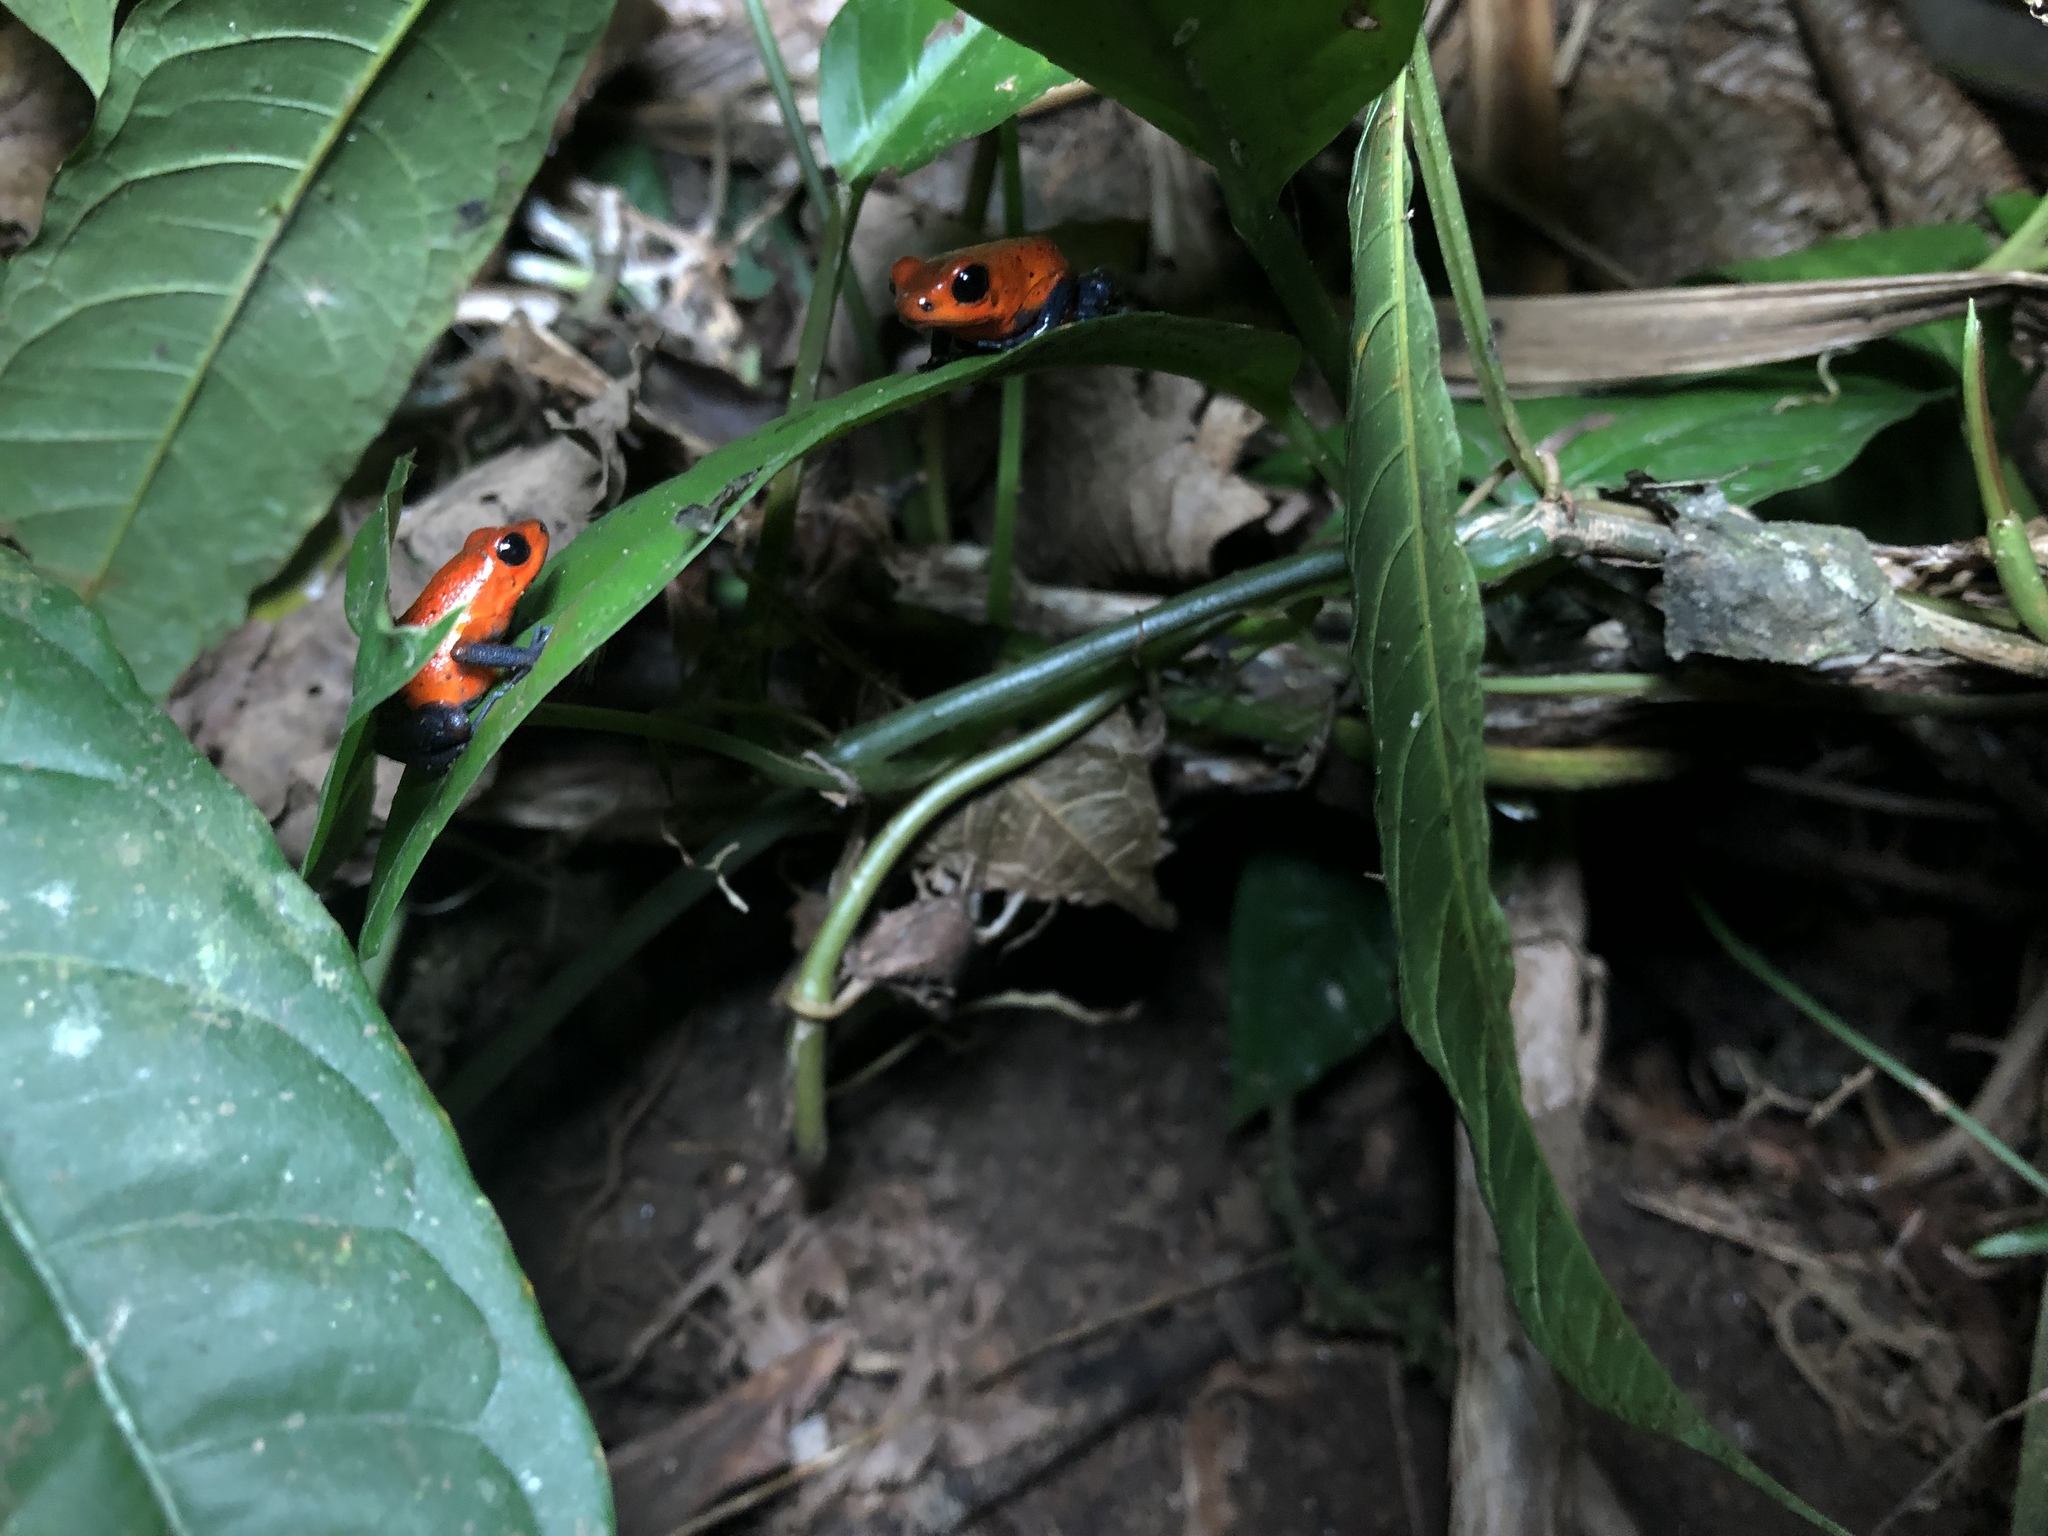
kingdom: Animalia
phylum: Chordata
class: Amphibia
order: Anura
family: Dendrobatidae
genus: Oophaga
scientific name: Oophaga pumilio
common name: Flaming poison frog
